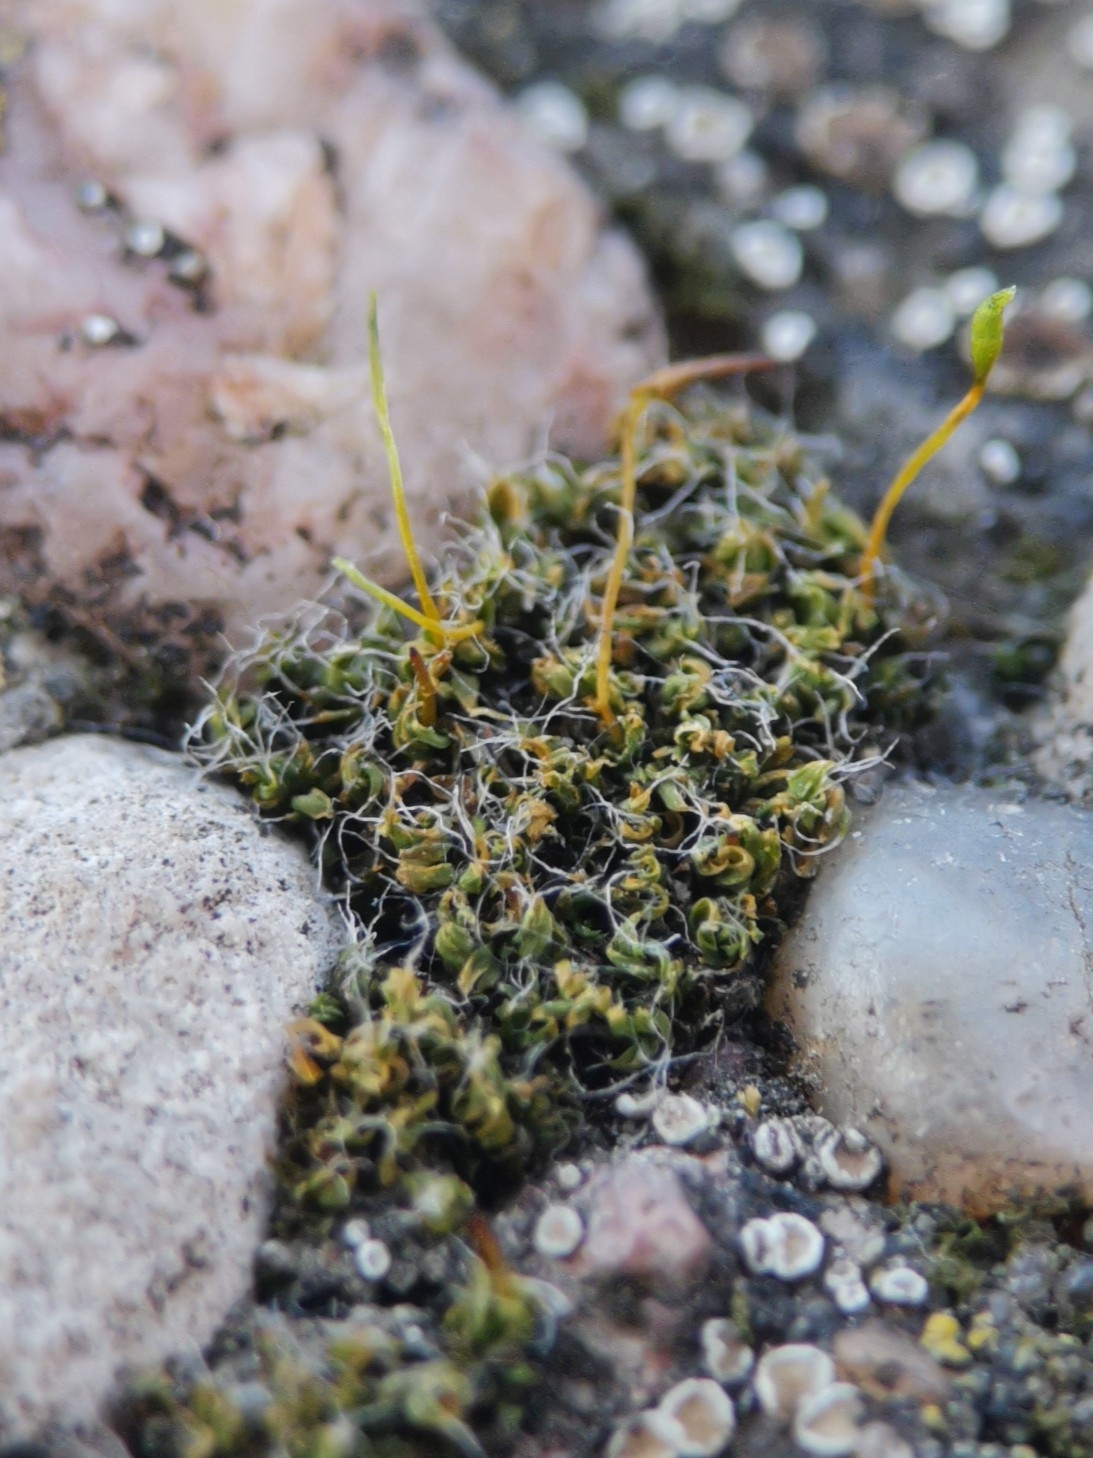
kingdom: Plantae
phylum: Bryophyta
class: Bryopsida
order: Pottiales
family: Pottiaceae
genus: Tortula
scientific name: Tortula muralis
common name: Wall screw-moss
